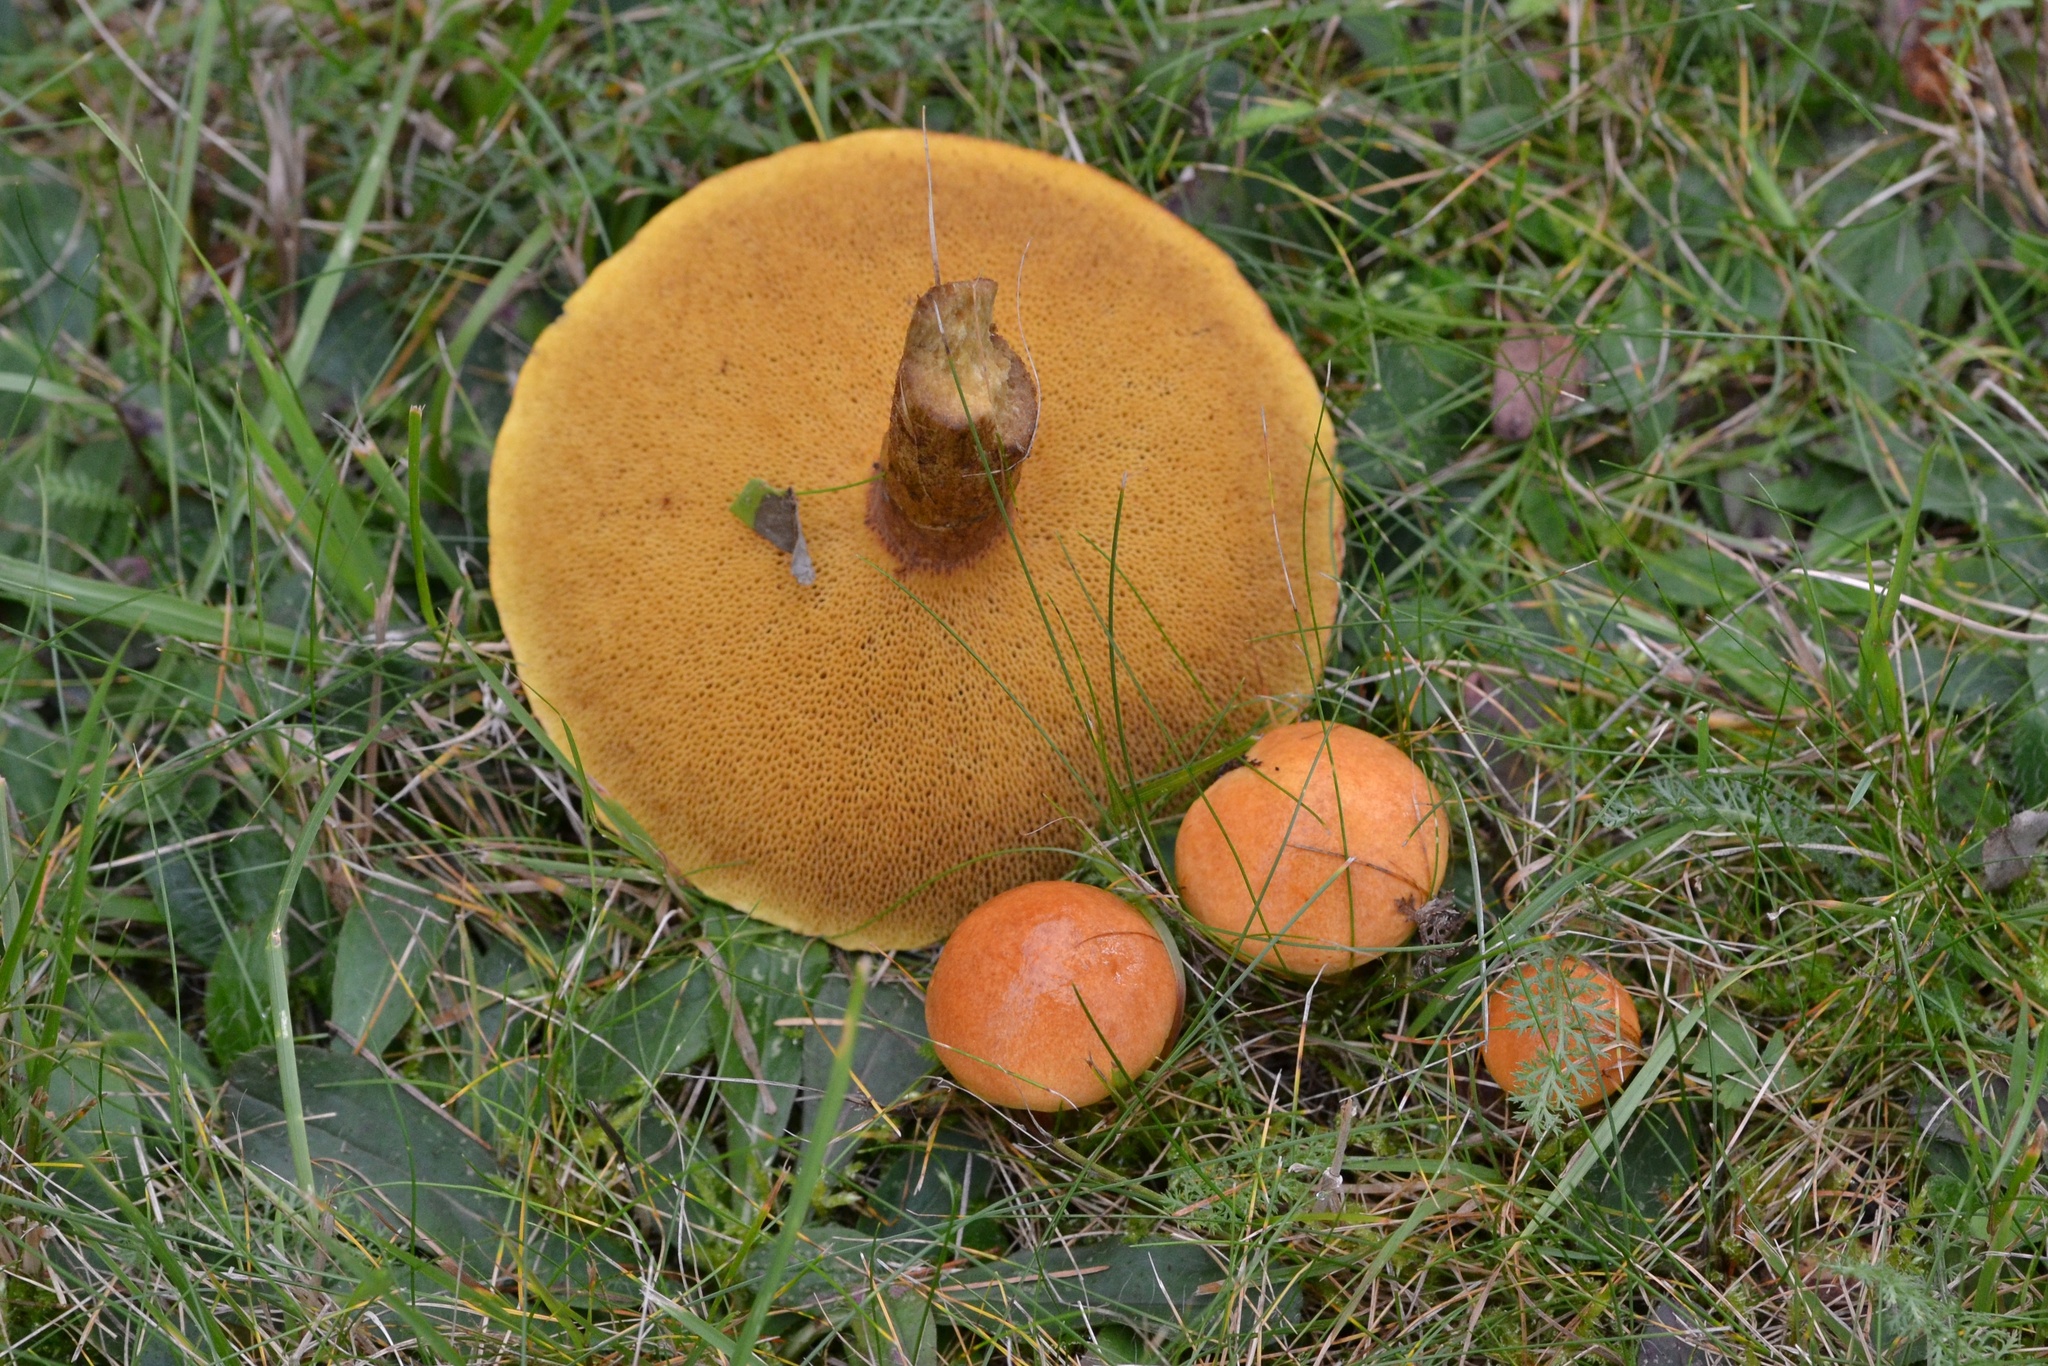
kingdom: Fungi
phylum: Basidiomycota
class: Agaricomycetes
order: Boletales
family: Suillaceae
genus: Suillus
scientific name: Suillus grevillei
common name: Larch bolete
